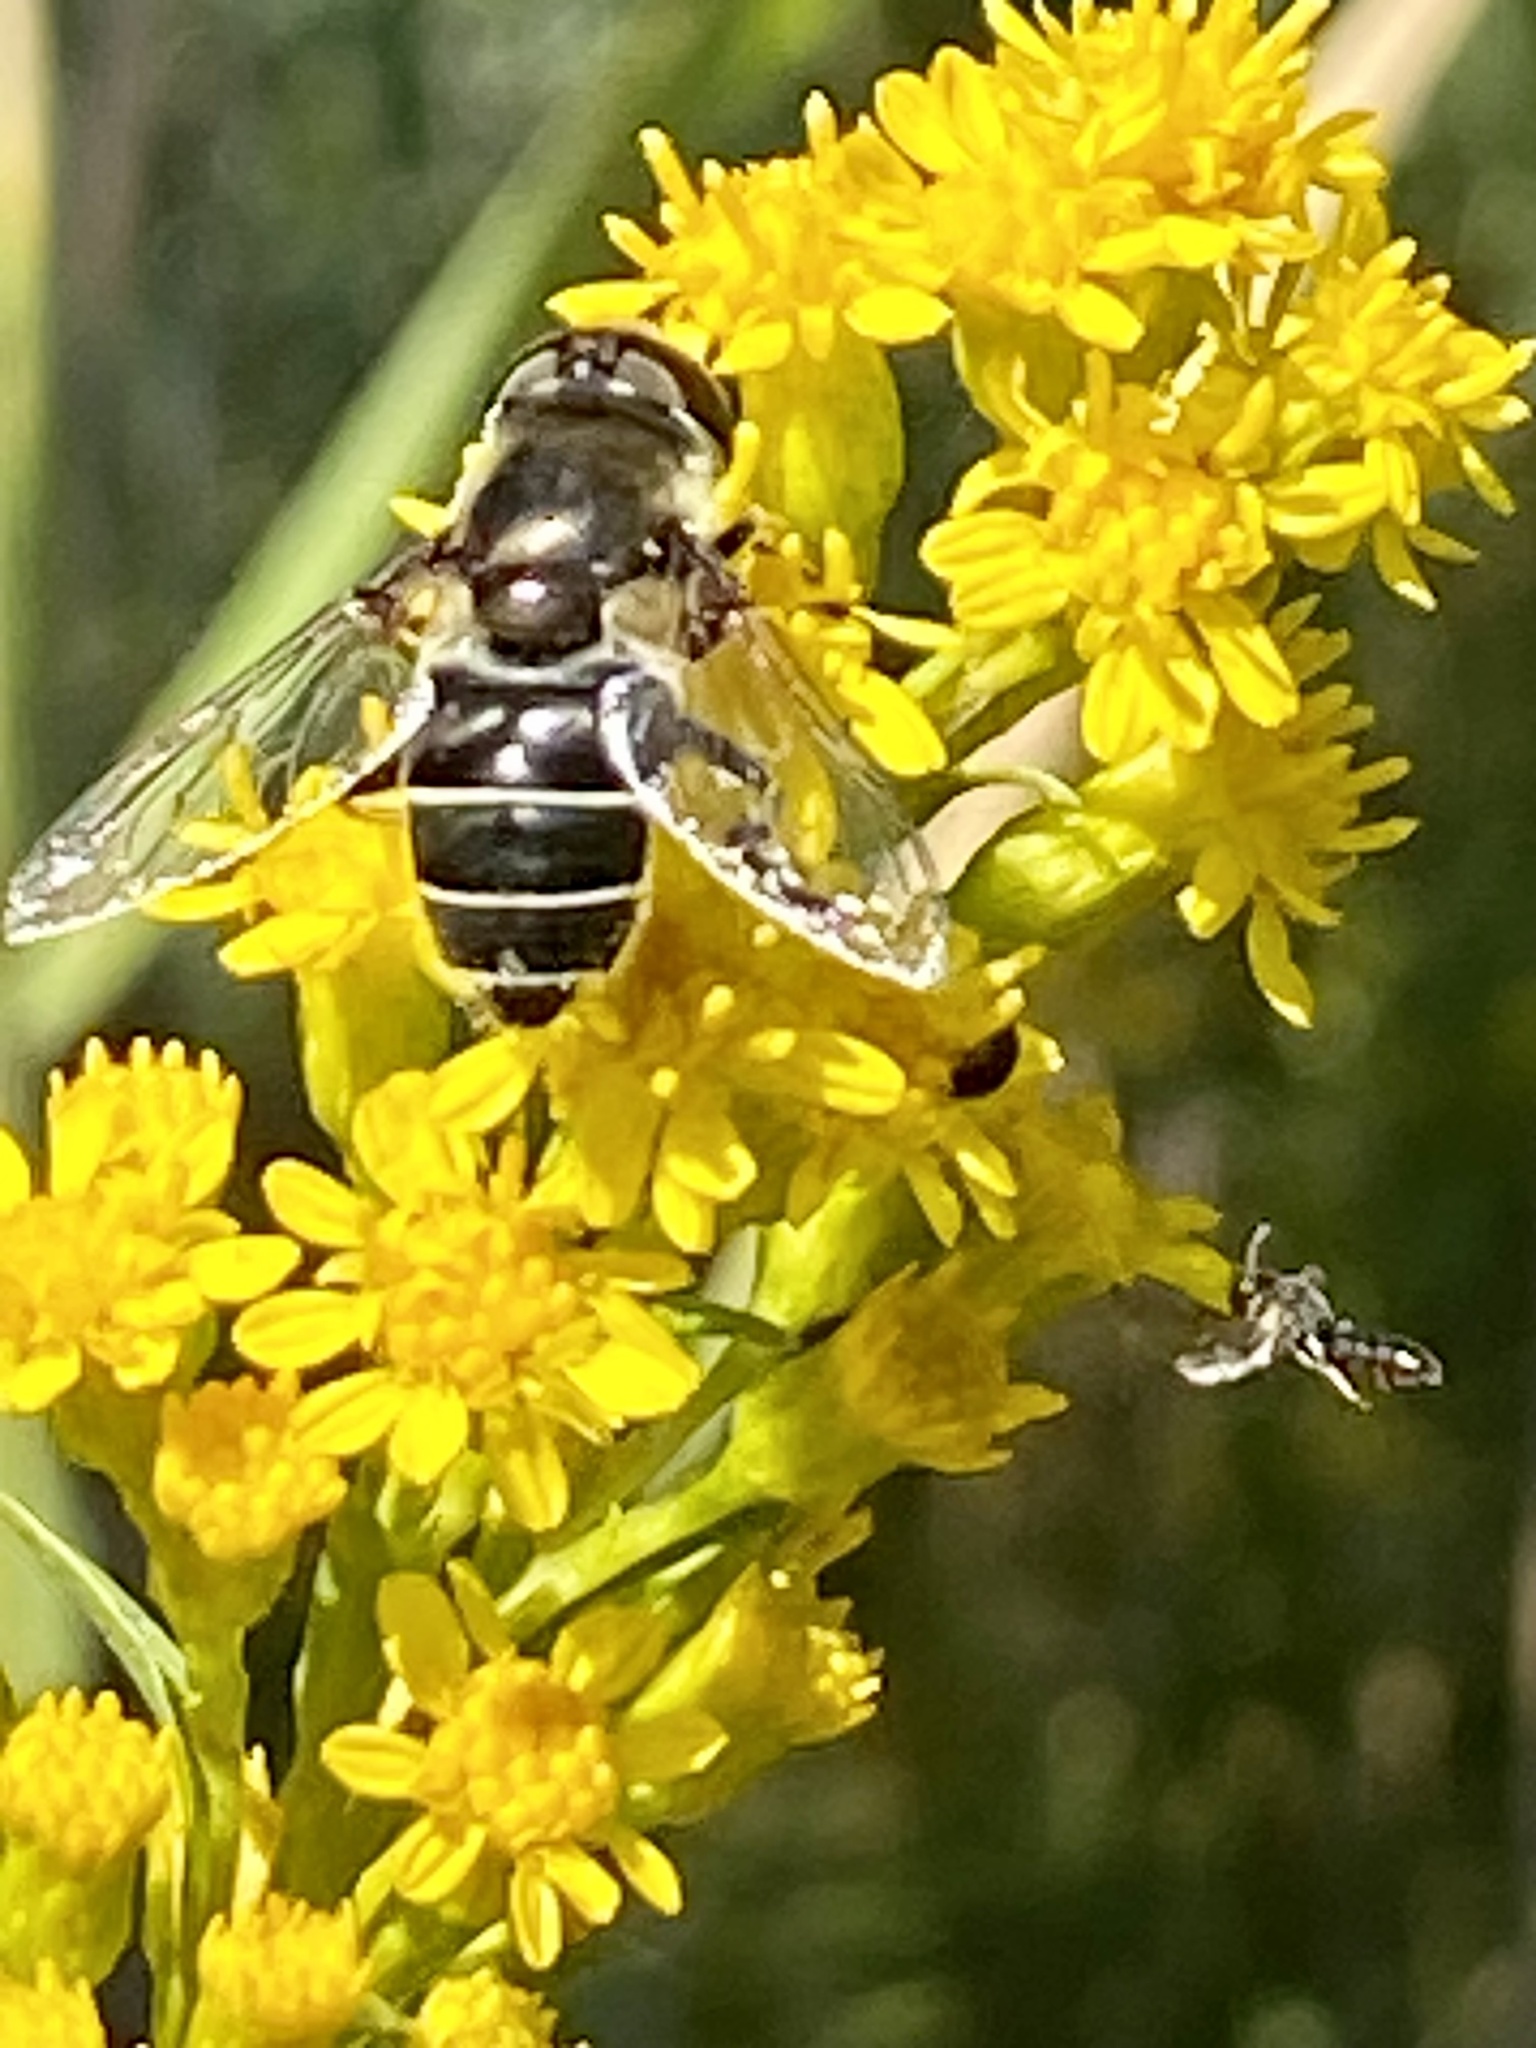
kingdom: Animalia
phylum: Arthropoda
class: Insecta
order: Diptera
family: Syrphidae
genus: Eristalis
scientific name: Eristalis dimidiata
